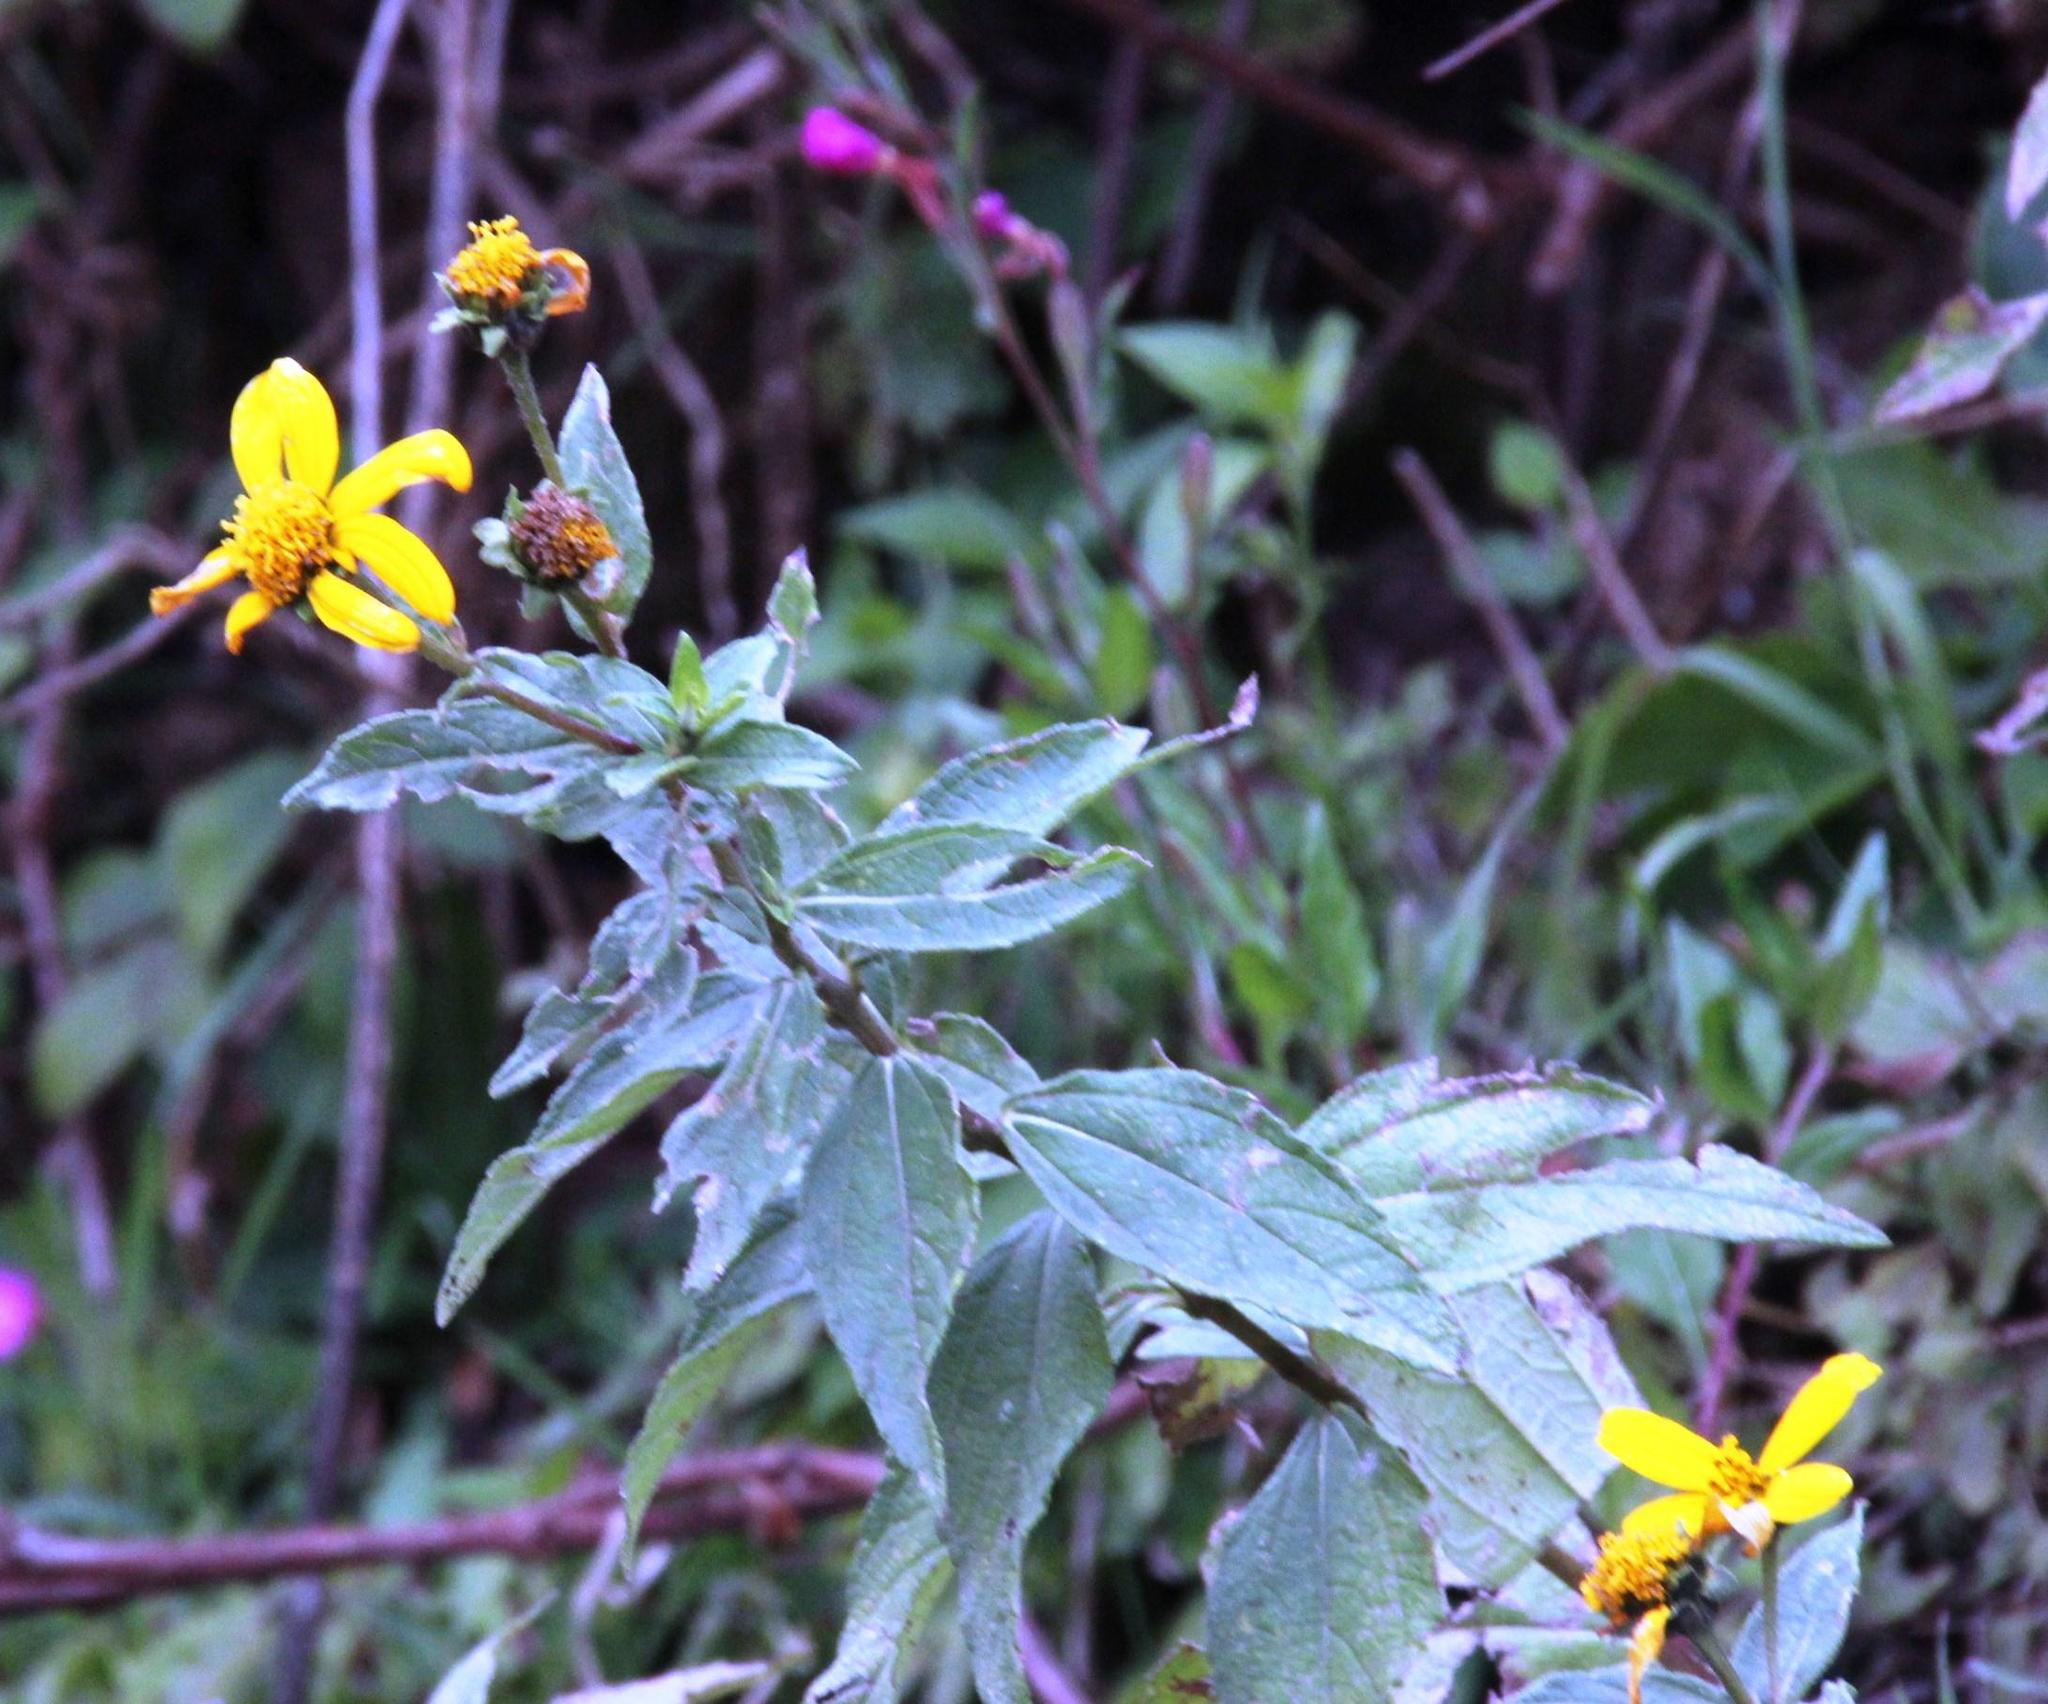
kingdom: Plantae
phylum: Tracheophyta
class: Magnoliopsida
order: Asterales
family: Asteraceae
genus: Aldama
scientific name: Aldama lanceolata
